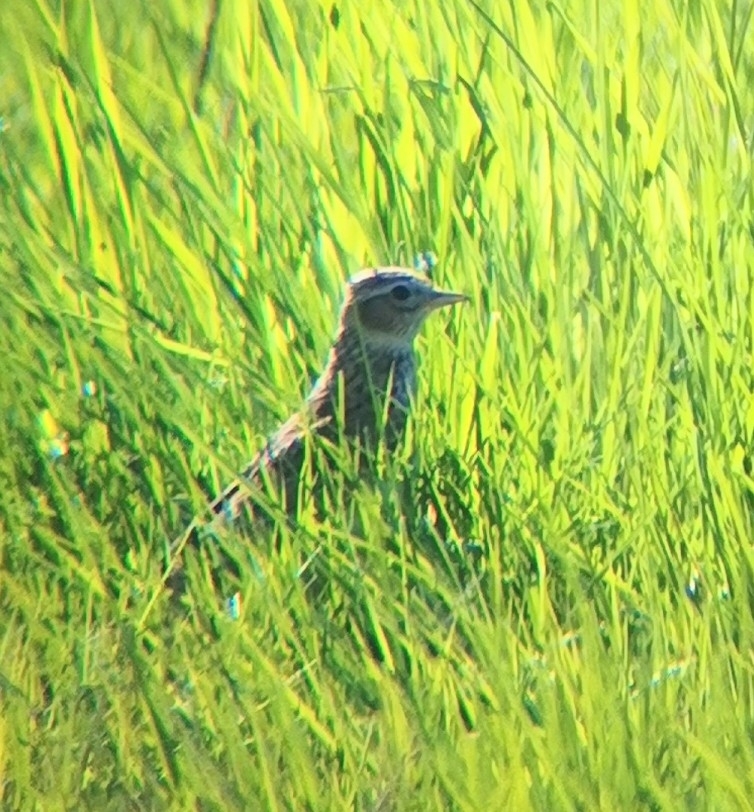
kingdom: Animalia
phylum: Chordata
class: Aves
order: Passeriformes
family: Alaudidae
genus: Alauda
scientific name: Alauda arvensis
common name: Eurasian skylark
